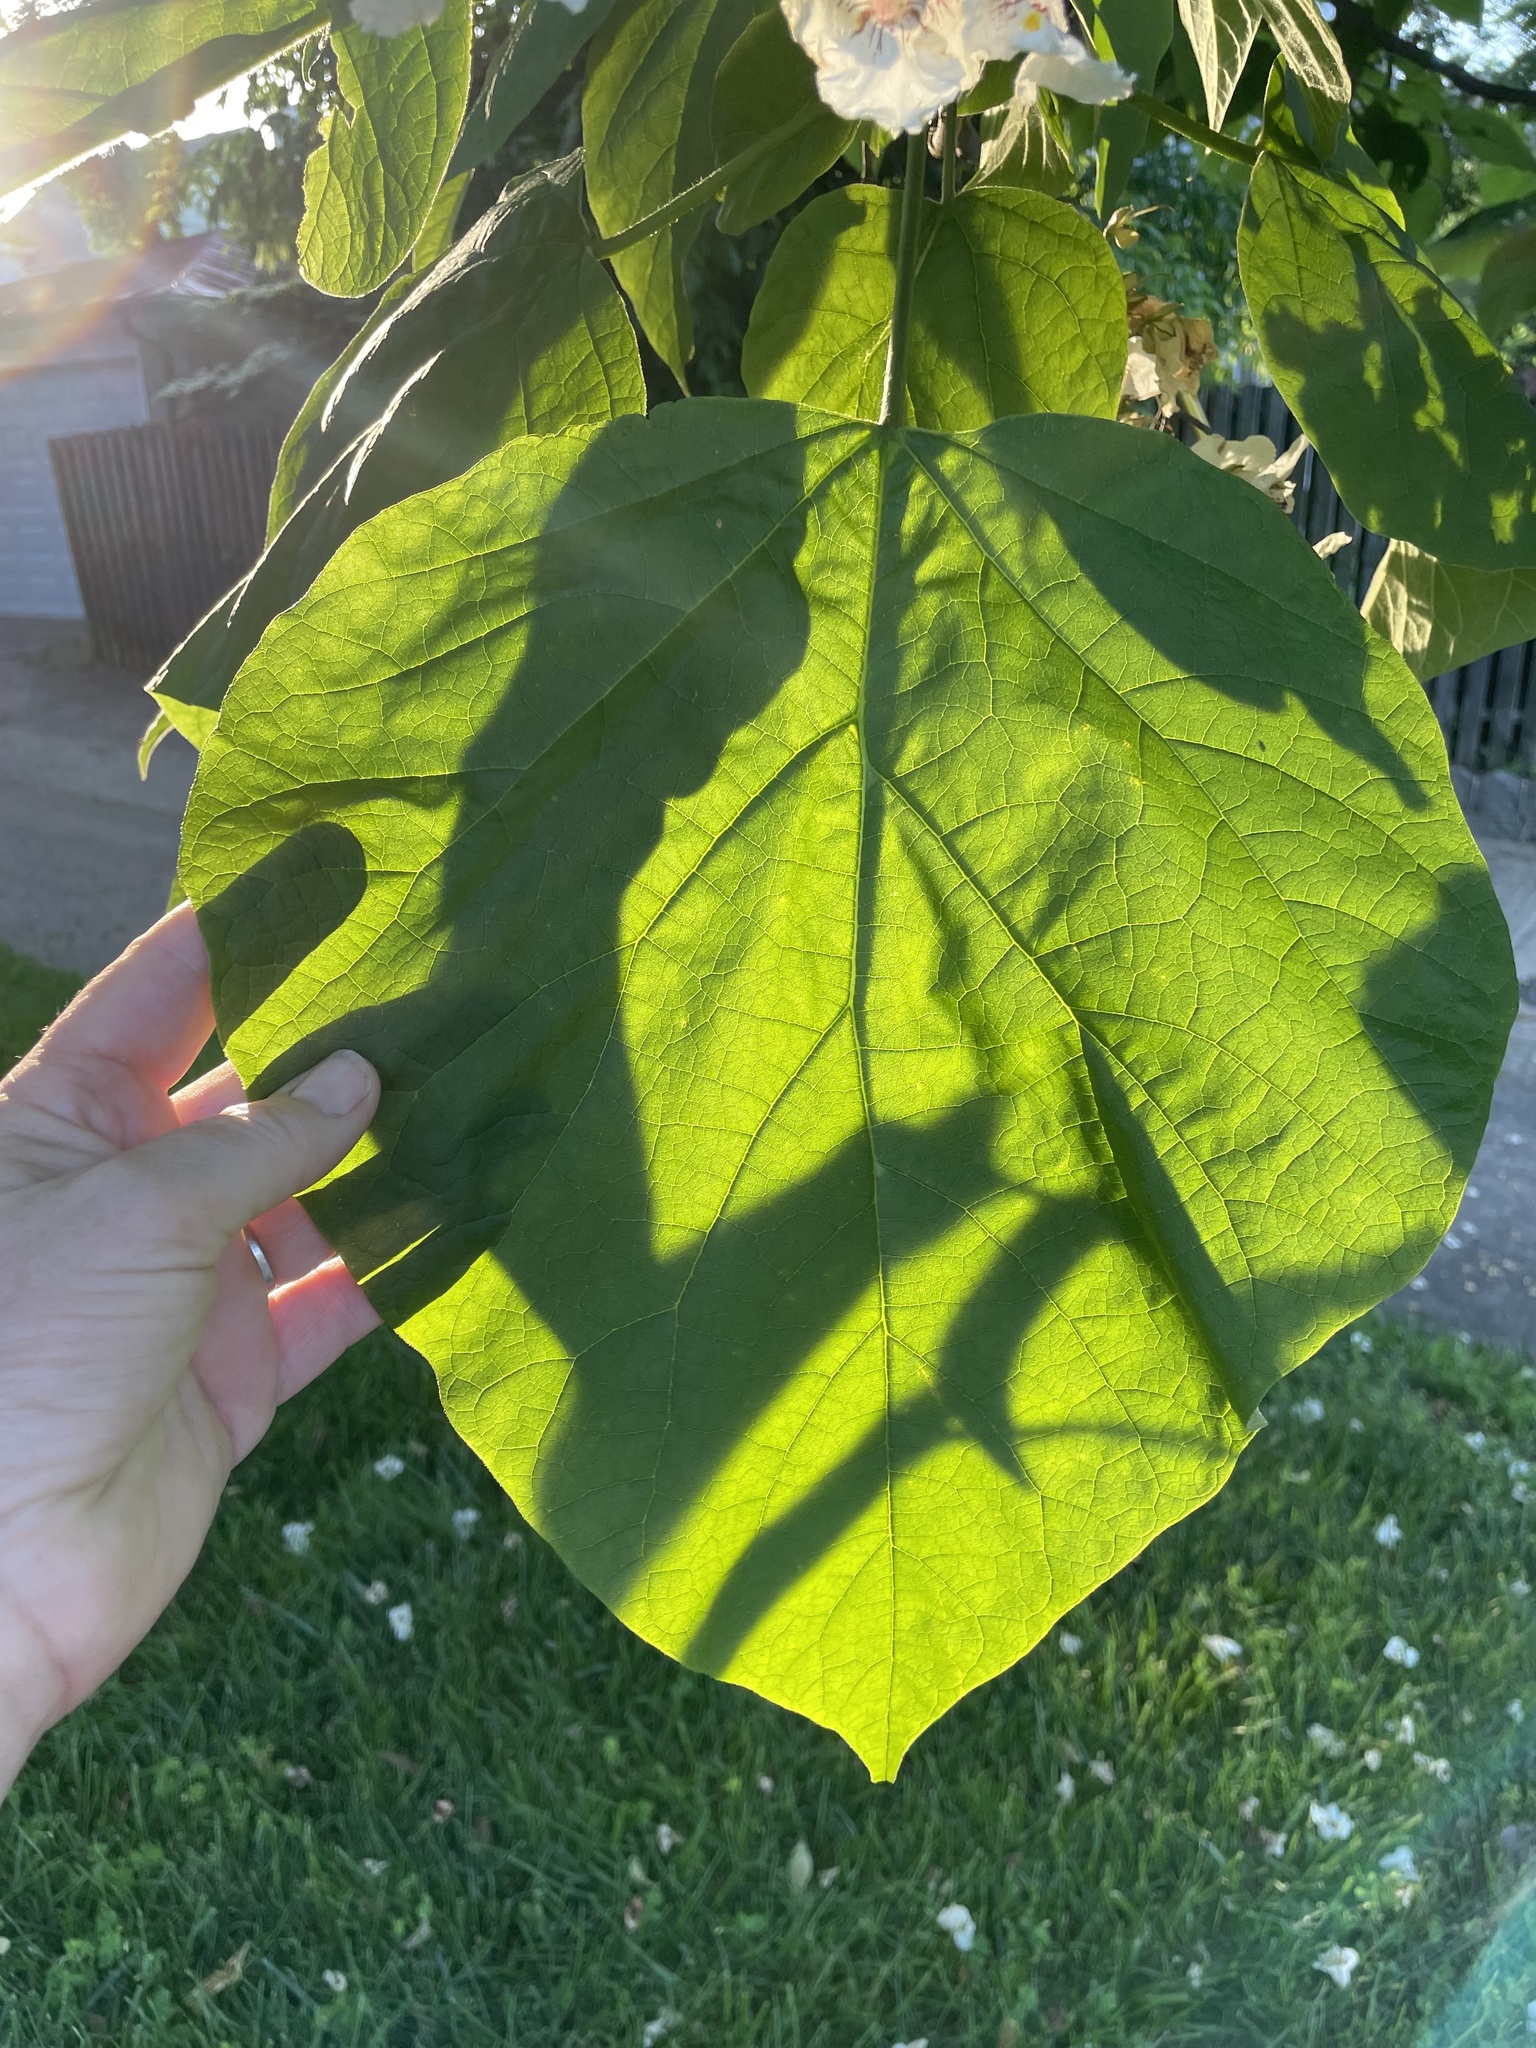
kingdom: Plantae
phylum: Tracheophyta
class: Magnoliopsida
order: Lamiales
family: Bignoniaceae
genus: Catalpa
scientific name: Catalpa speciosa
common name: Northern catalpa
